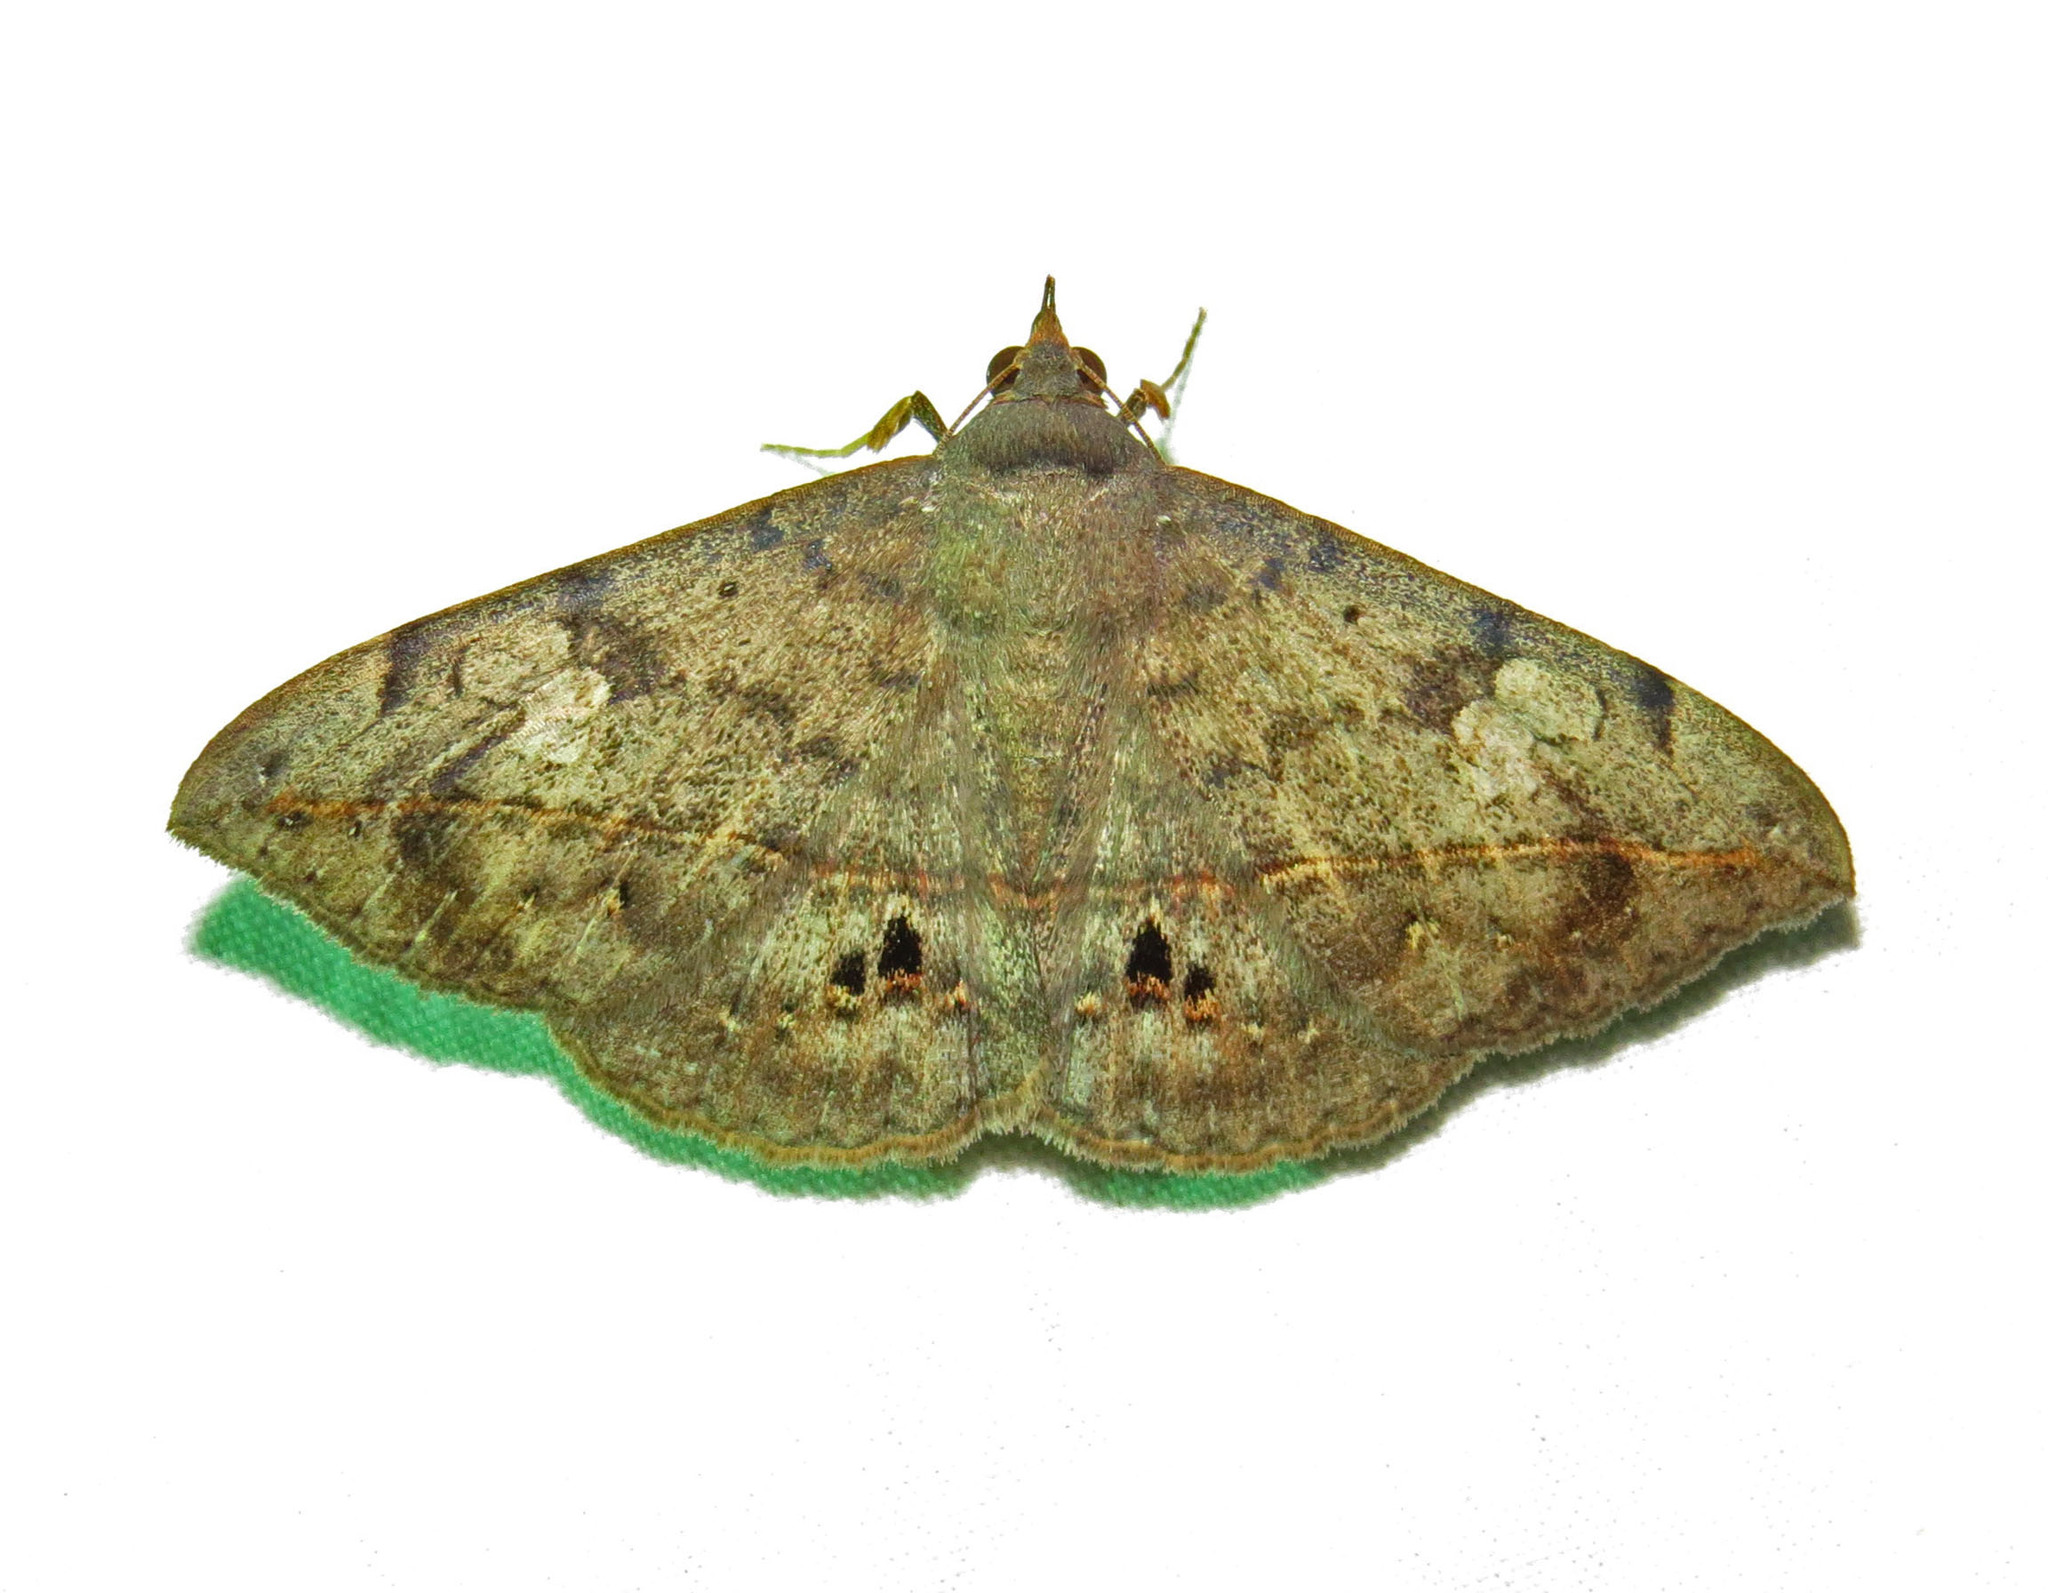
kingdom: Animalia
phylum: Arthropoda
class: Insecta
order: Lepidoptera
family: Erebidae
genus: Anticarsia
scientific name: Anticarsia gemmatalis
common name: Cutworm moth
